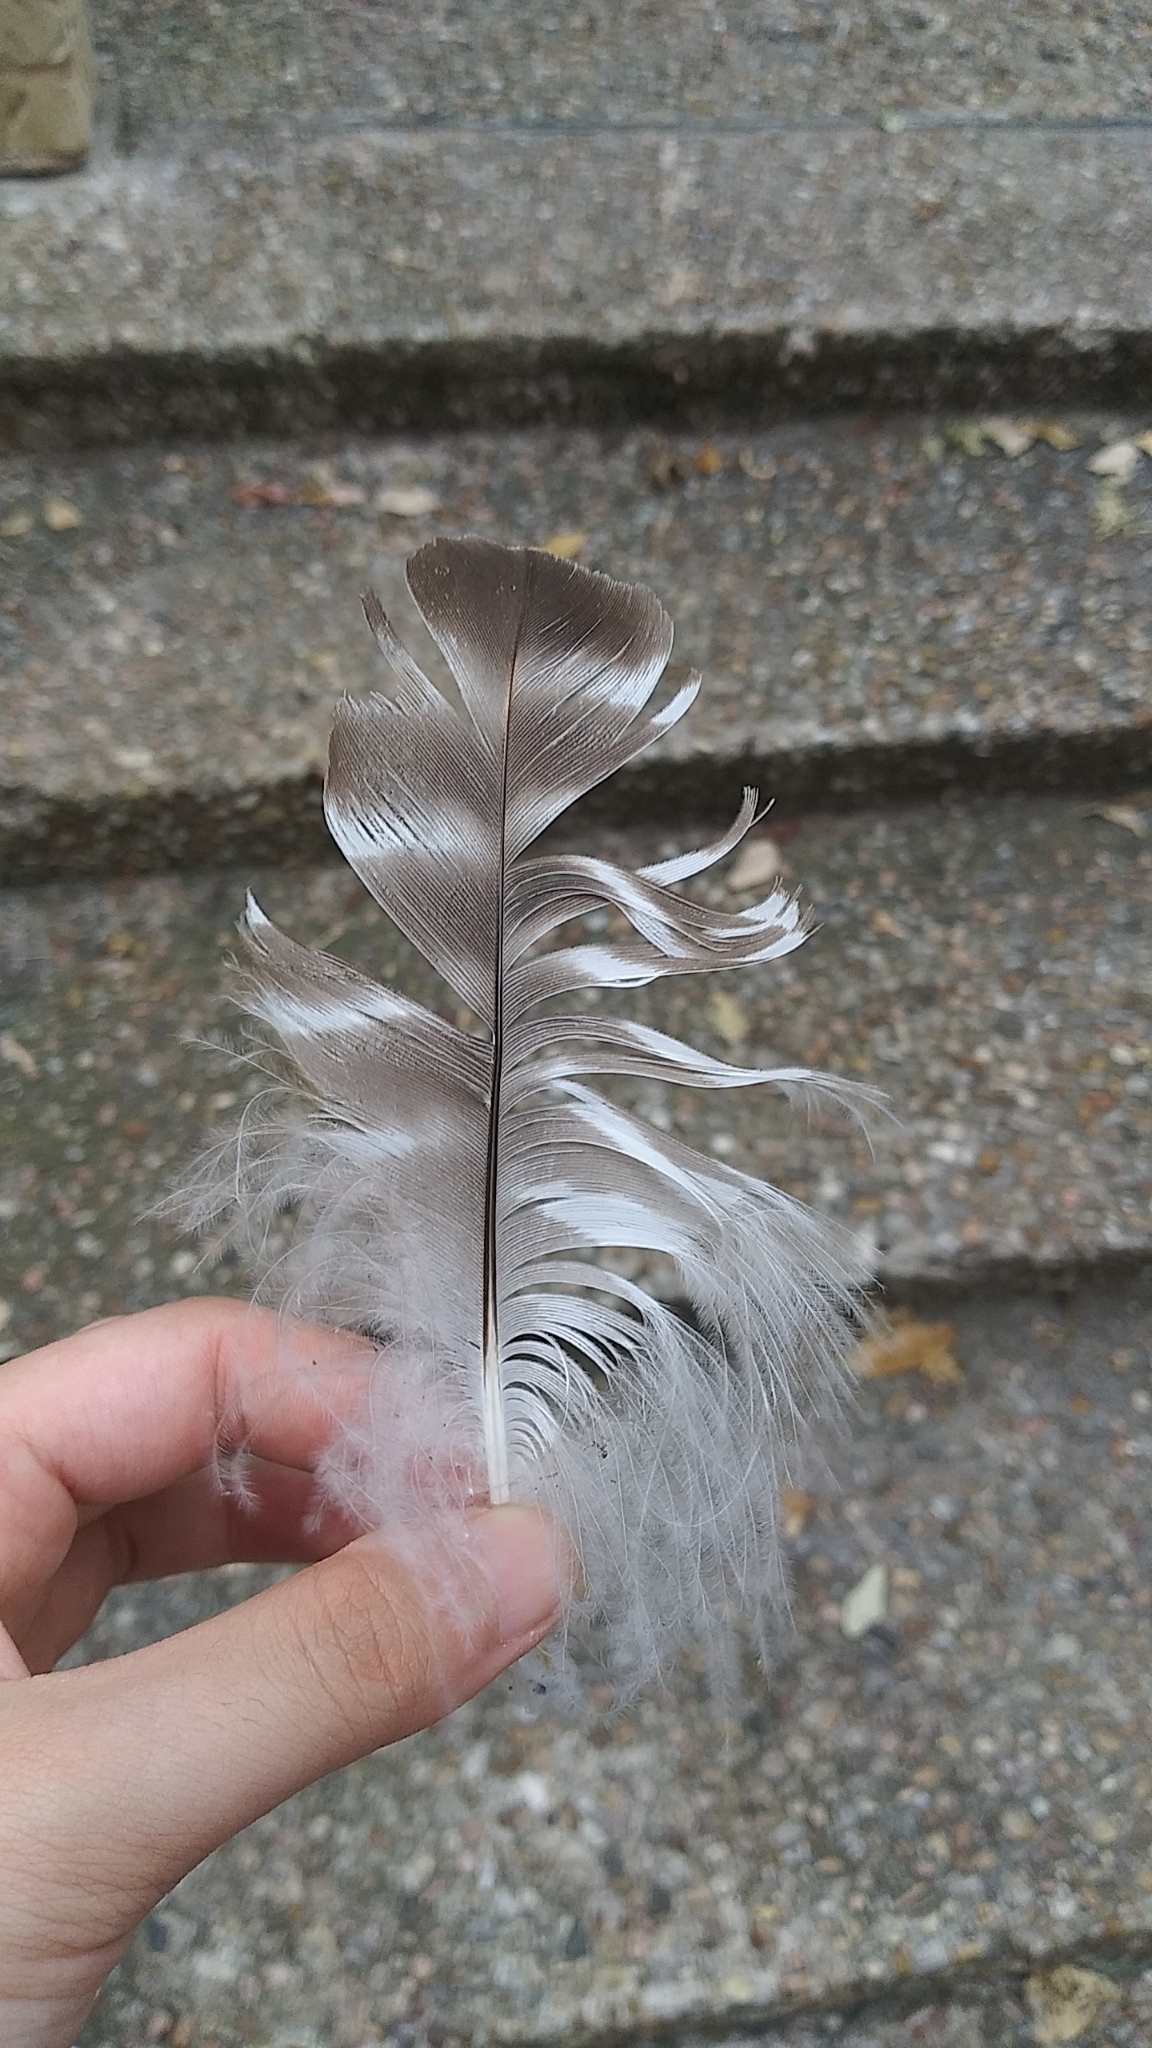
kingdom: Animalia
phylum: Chordata
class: Aves
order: Accipitriformes
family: Accipitridae
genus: Buteo
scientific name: Buteo lineatus
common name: Red-shouldered hawk
